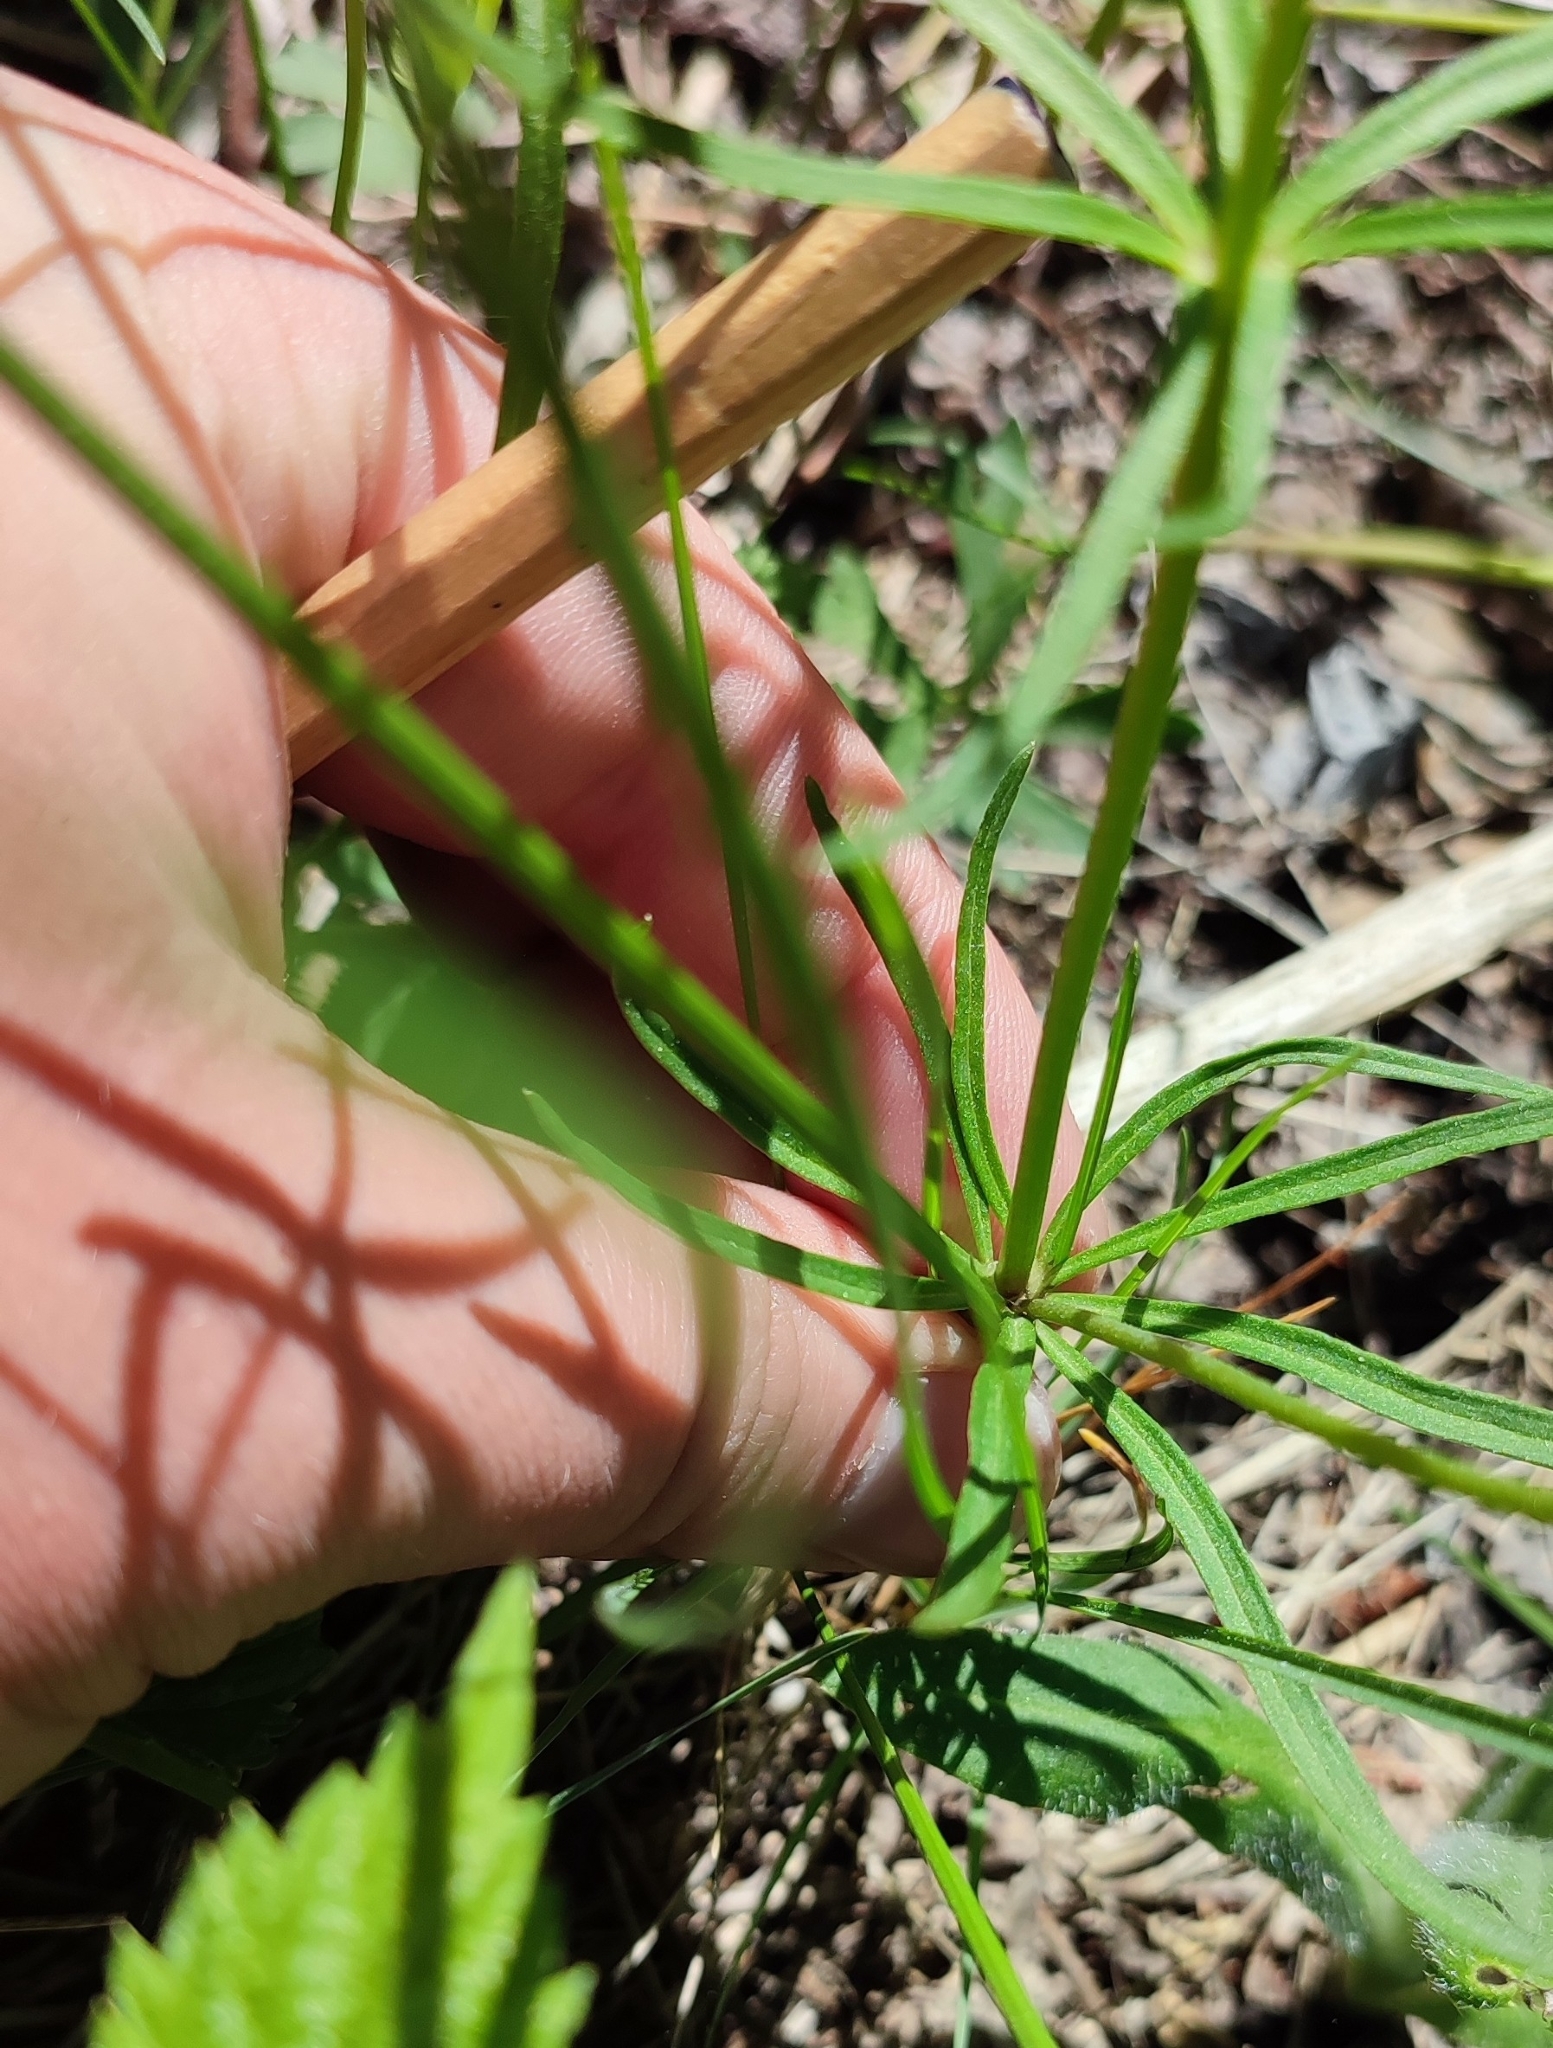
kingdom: Plantae
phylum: Tracheophyta
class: Magnoliopsida
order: Ranunculales
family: Ranunculaceae
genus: Ranunculus
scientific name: Ranunculus auricomus
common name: Goldilocks buttercup
